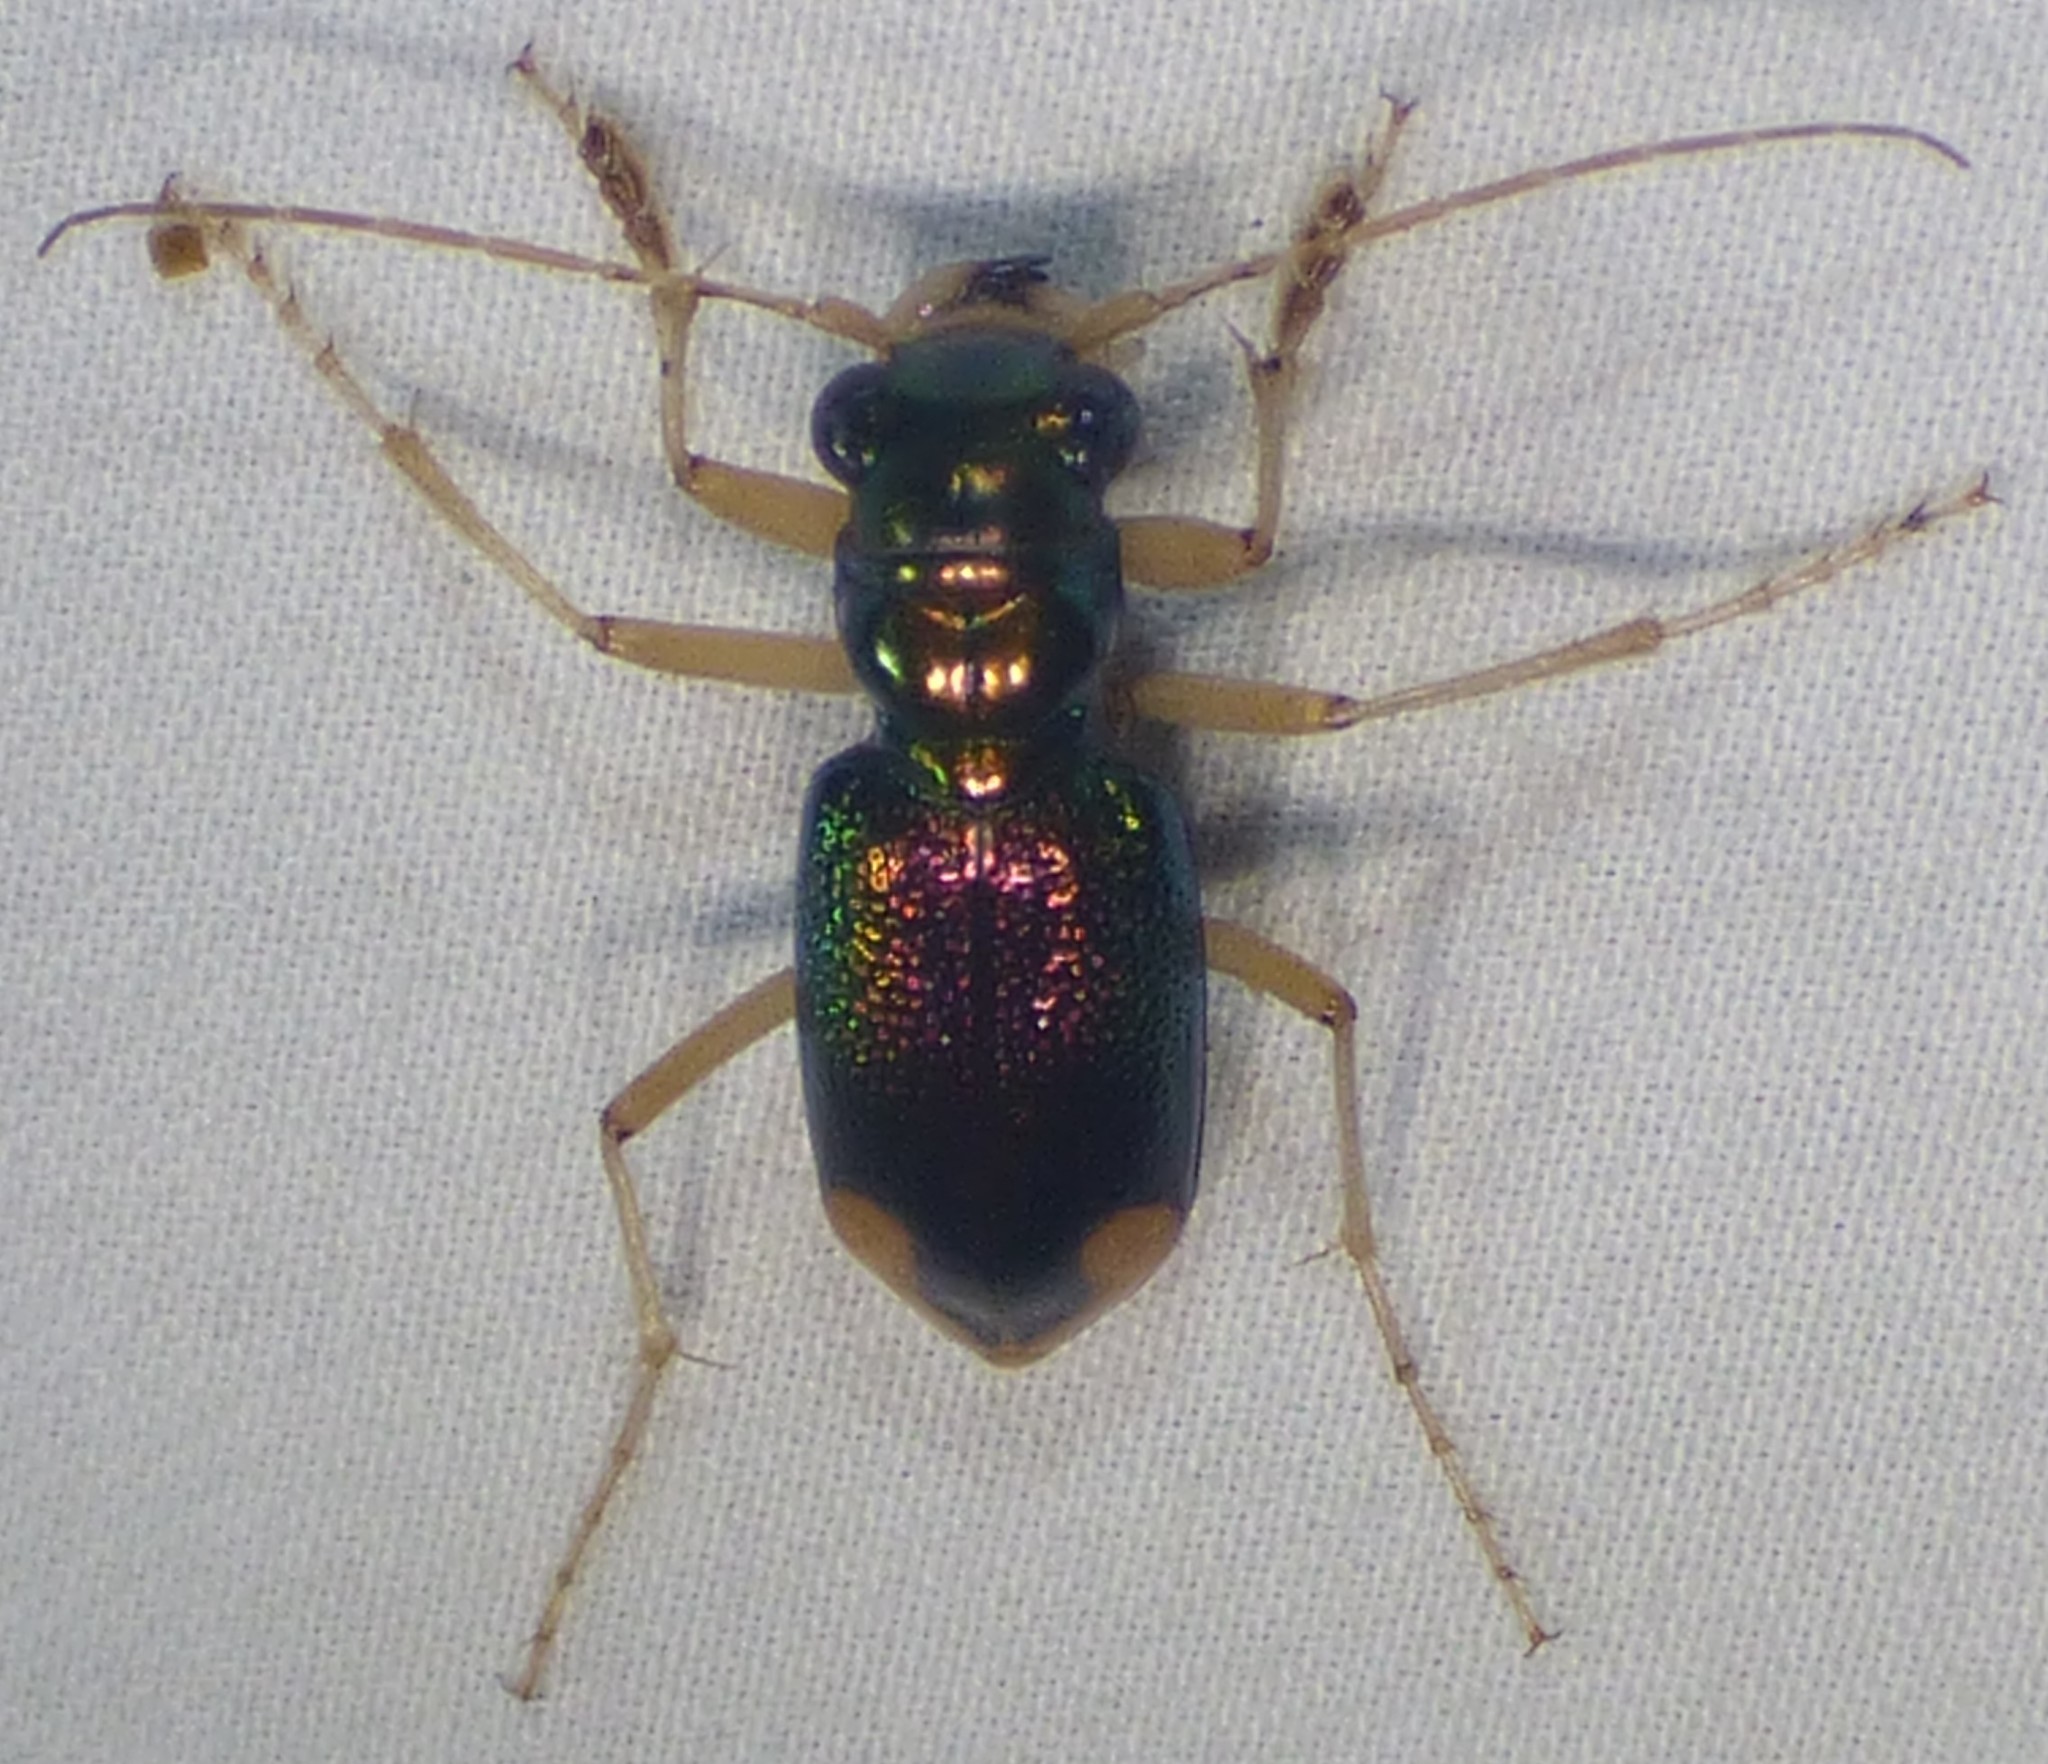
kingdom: Animalia
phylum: Arthropoda
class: Insecta
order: Coleoptera
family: Carabidae
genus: Tetracha
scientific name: Tetracha carolina
